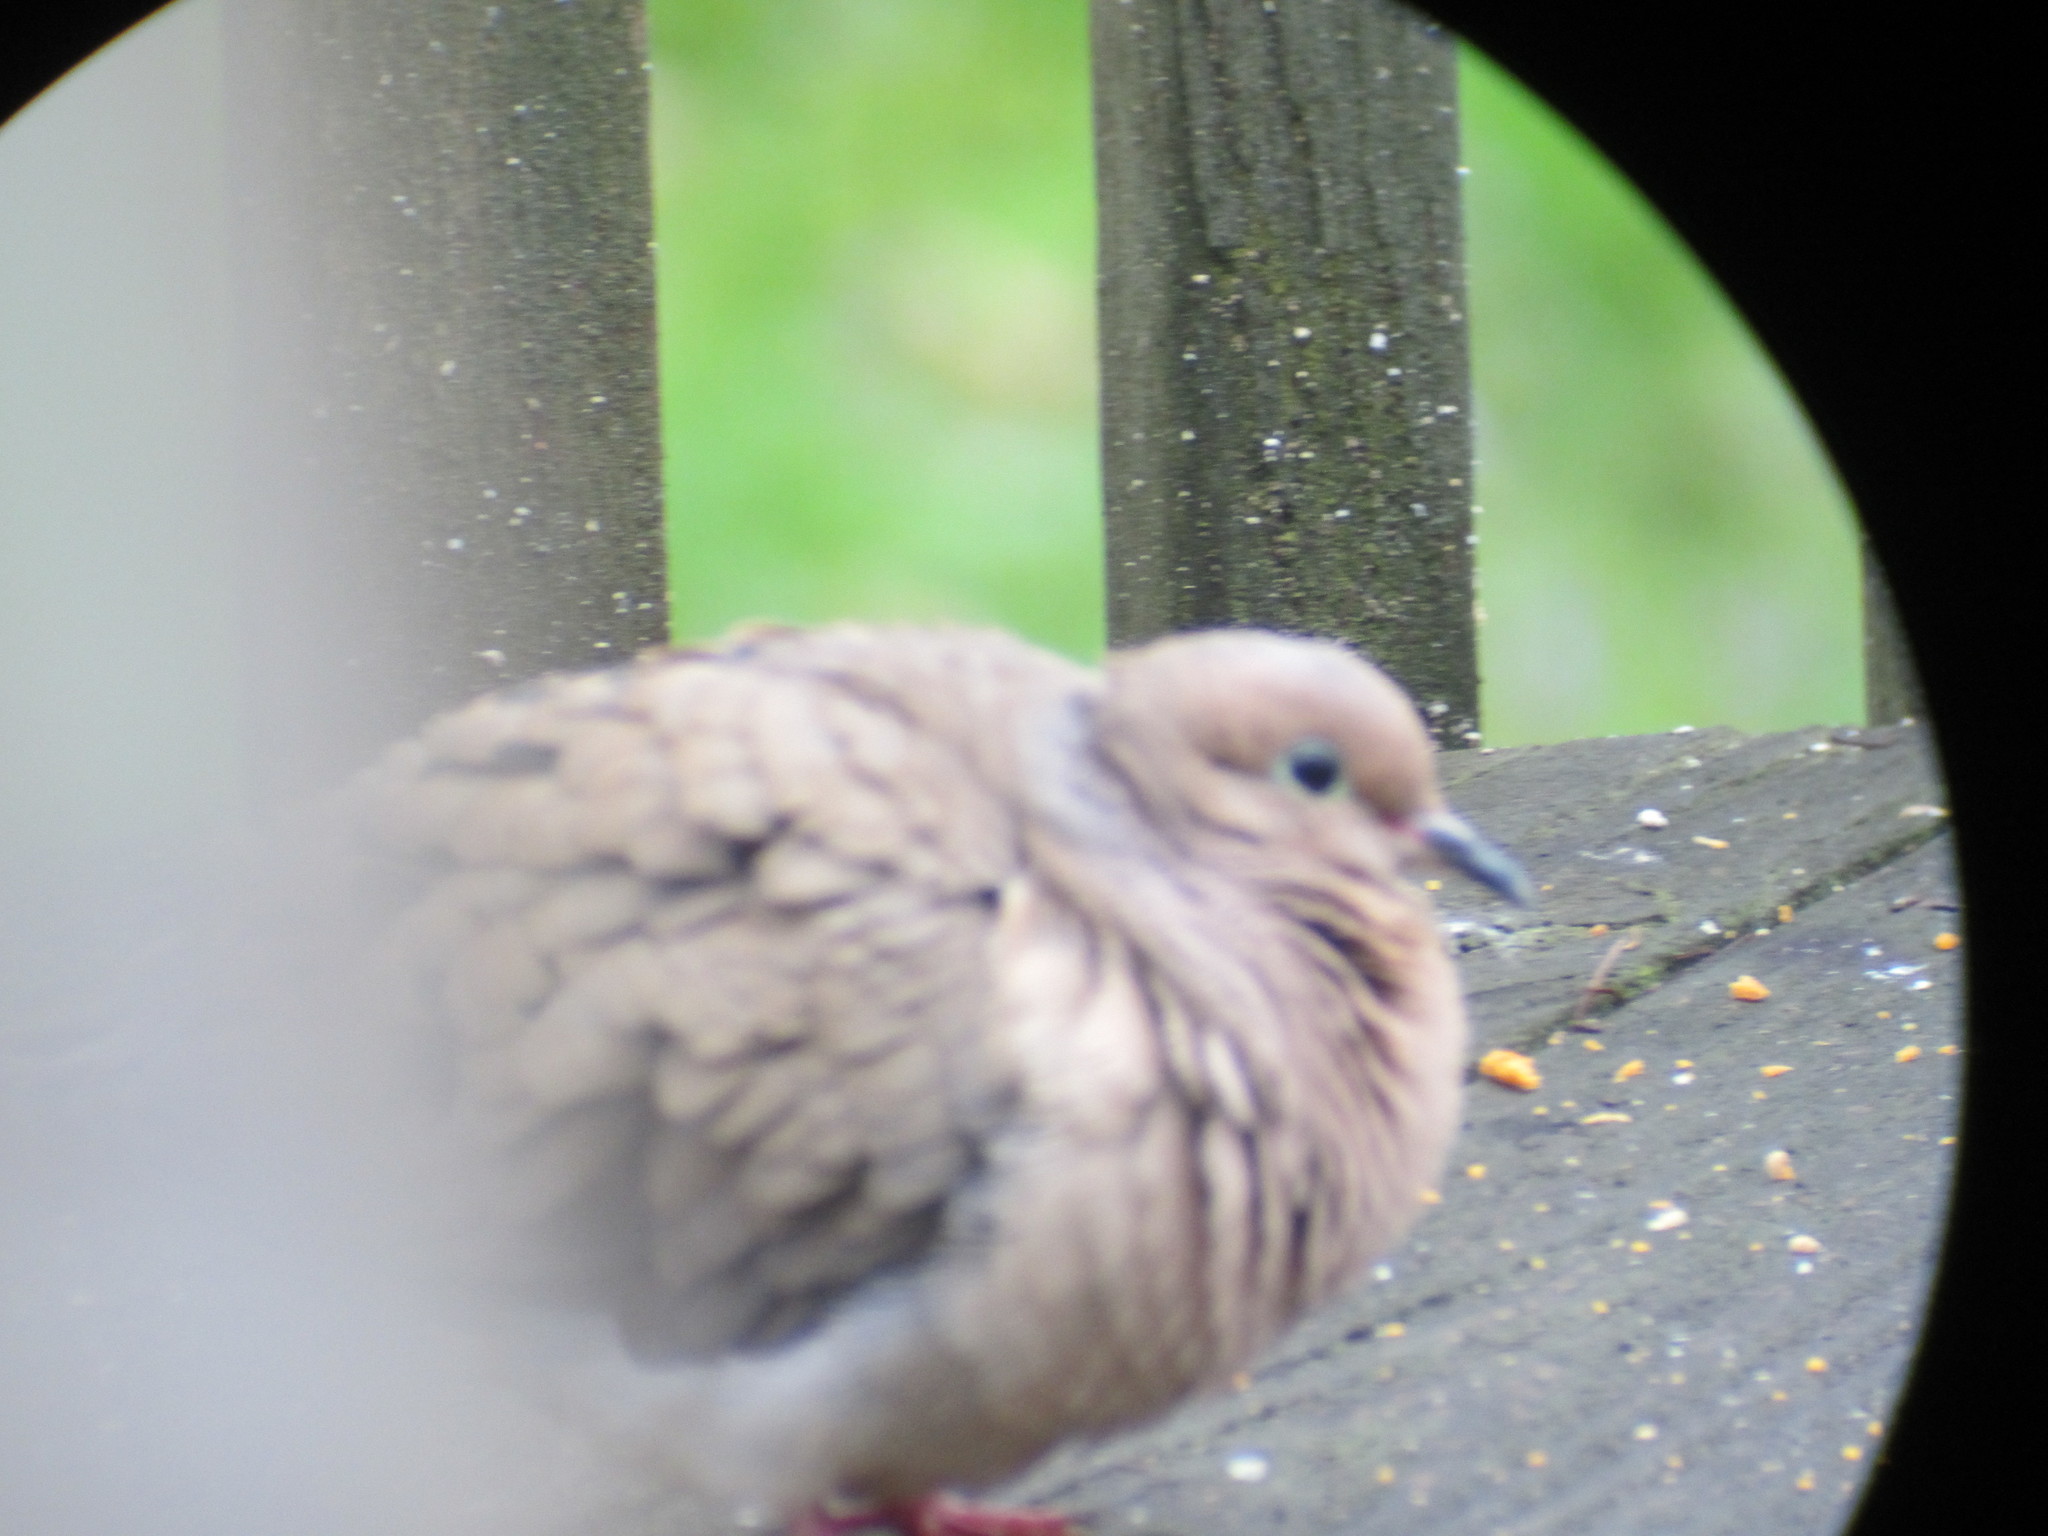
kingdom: Animalia
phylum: Chordata
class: Aves
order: Columbiformes
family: Columbidae
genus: Zenaida
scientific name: Zenaida macroura
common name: Mourning dove
